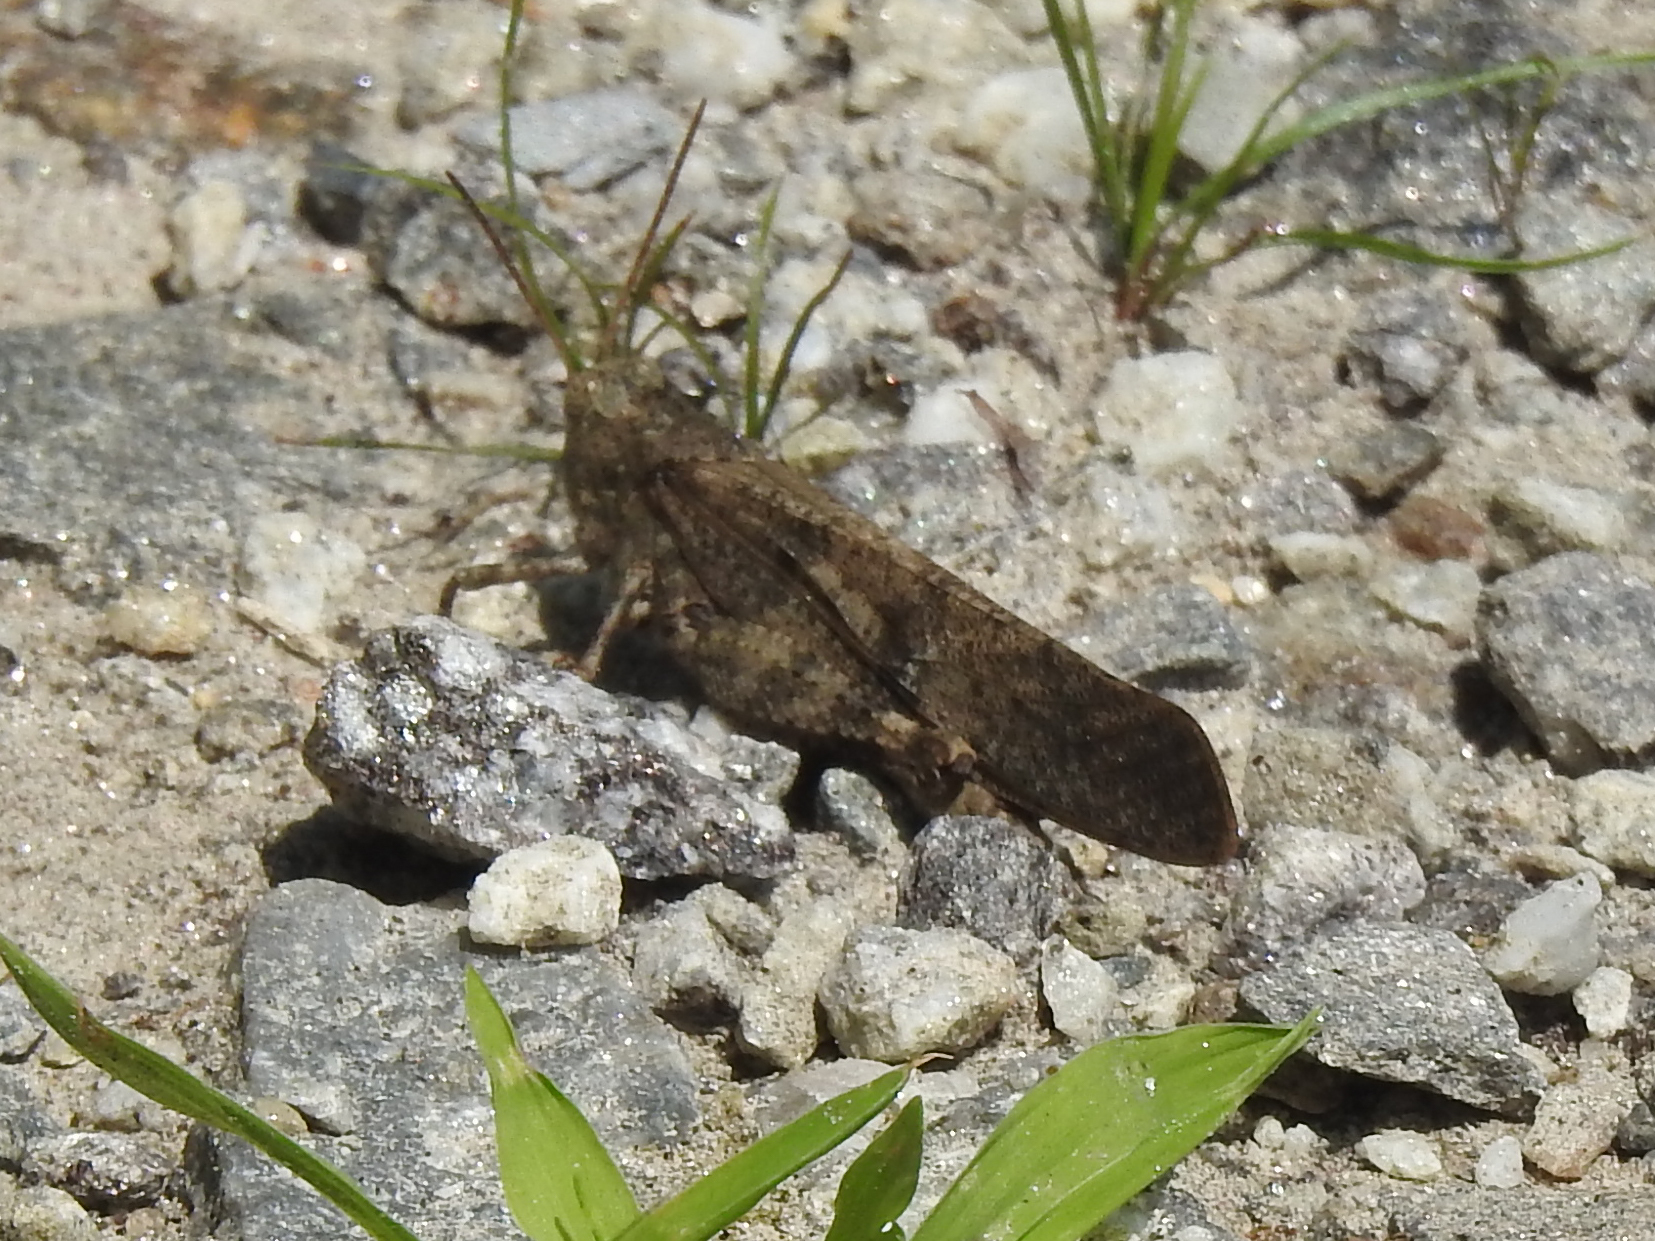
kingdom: Animalia
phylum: Arthropoda
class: Insecta
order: Orthoptera
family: Acrididae
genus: Dissosteira
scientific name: Dissosteira carolina
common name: Carolina grasshopper
